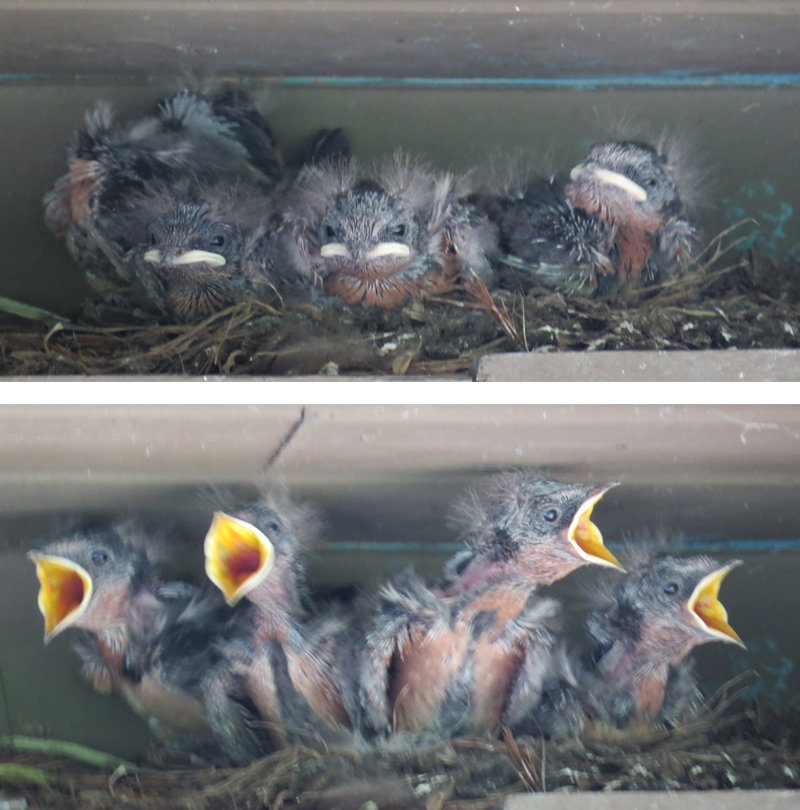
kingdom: Animalia
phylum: Chordata
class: Aves
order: Passeriformes
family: Hirundinidae
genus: Hirundo
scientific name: Hirundo rustica
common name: Barn swallow
